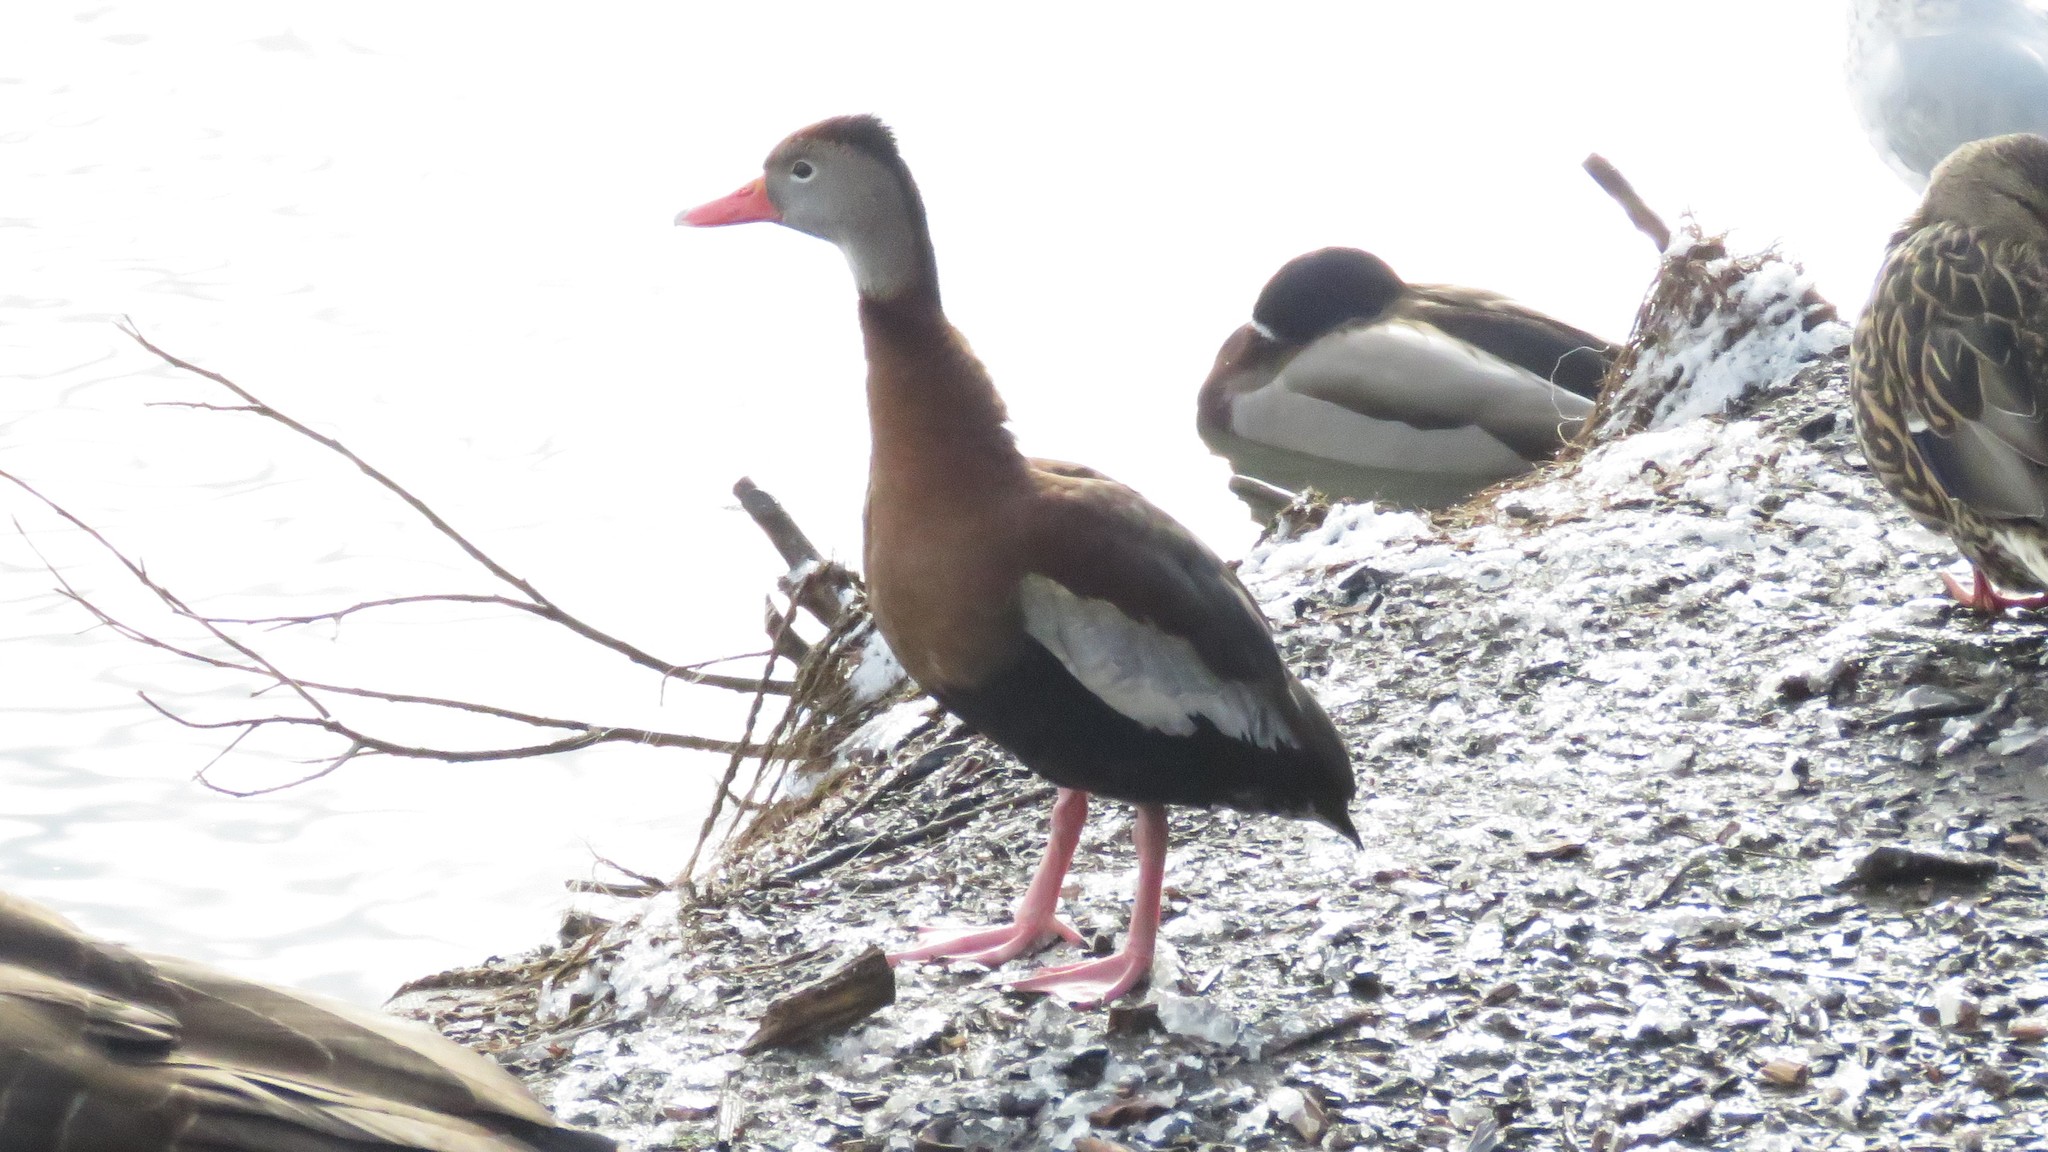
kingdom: Animalia
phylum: Chordata
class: Aves
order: Anseriformes
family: Anatidae
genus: Dendrocygna
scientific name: Dendrocygna autumnalis
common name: Black-bellied whistling duck
